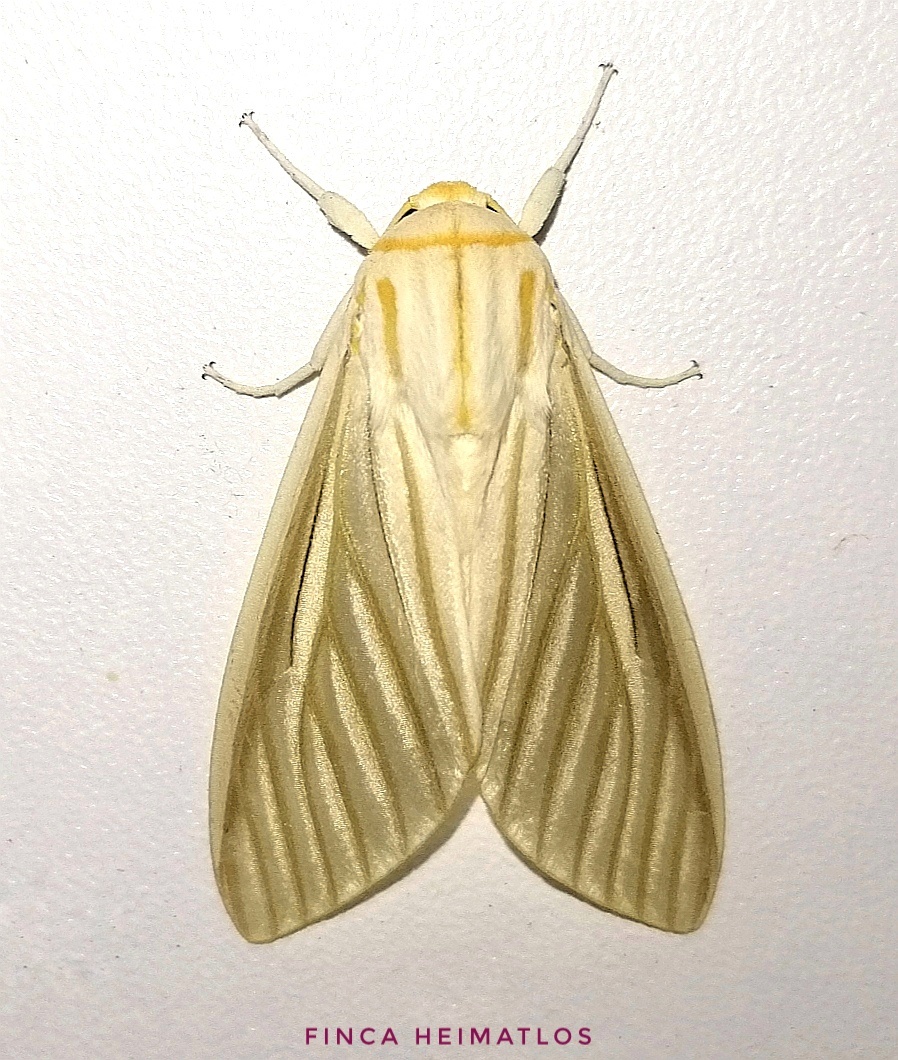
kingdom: Animalia
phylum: Arthropoda
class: Insecta
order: Lepidoptera
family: Erebidae
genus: Munona
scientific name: Munona iridescens
